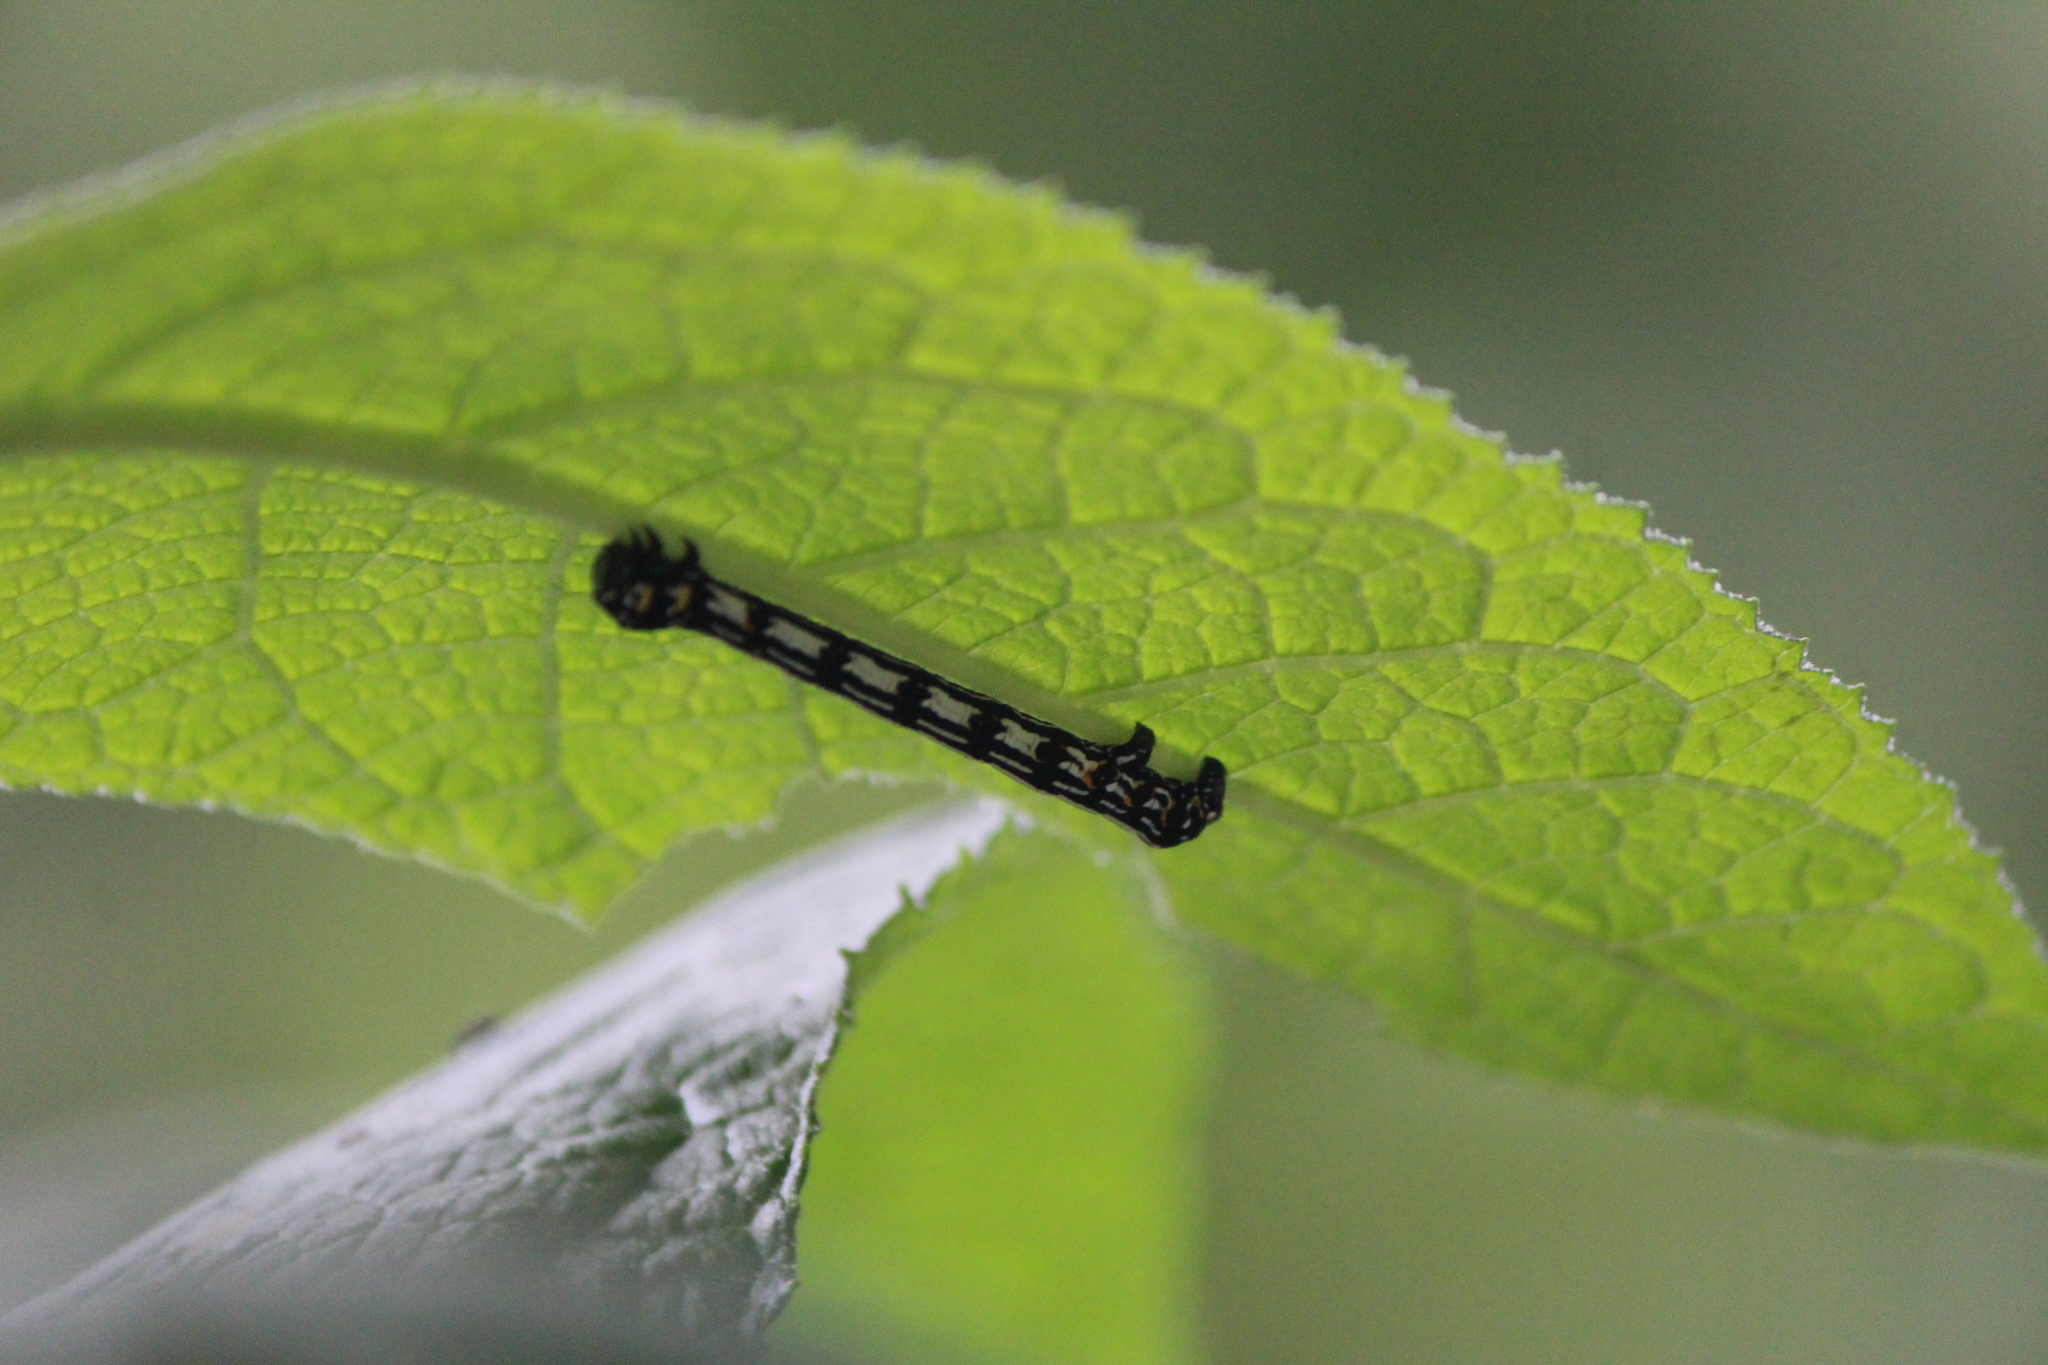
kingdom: Animalia
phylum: Arthropoda
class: Insecta
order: Lepidoptera
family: Geometridae
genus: Acronyctodes
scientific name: Acronyctodes mexicanaria
